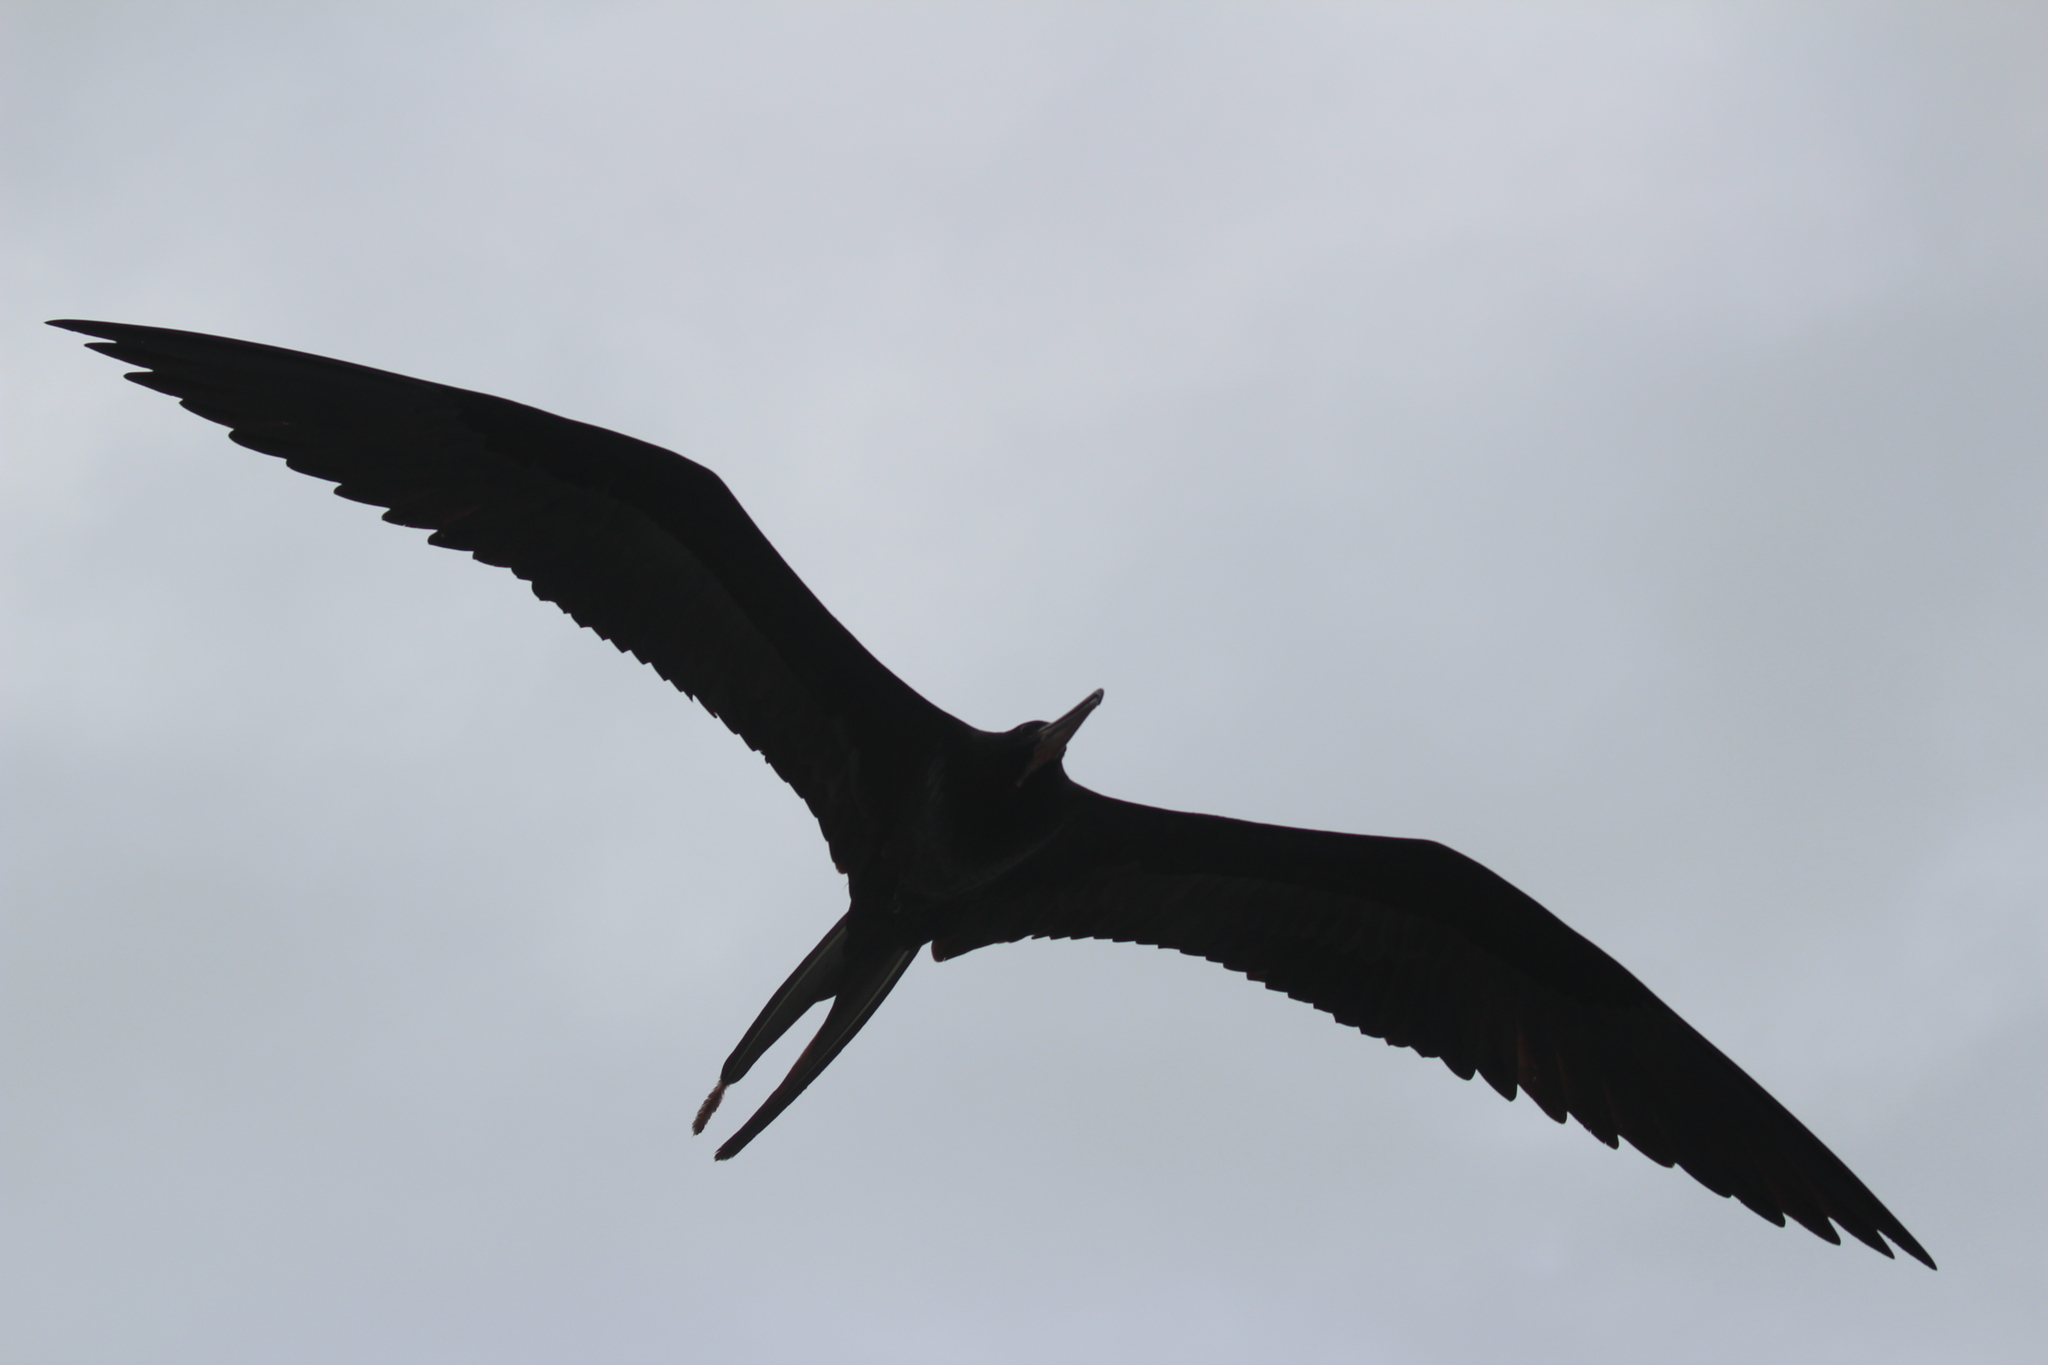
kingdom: Animalia
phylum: Chordata
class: Aves
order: Suliformes
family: Fregatidae
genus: Fregata
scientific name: Fregata magnificens
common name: Magnificent frigatebird
